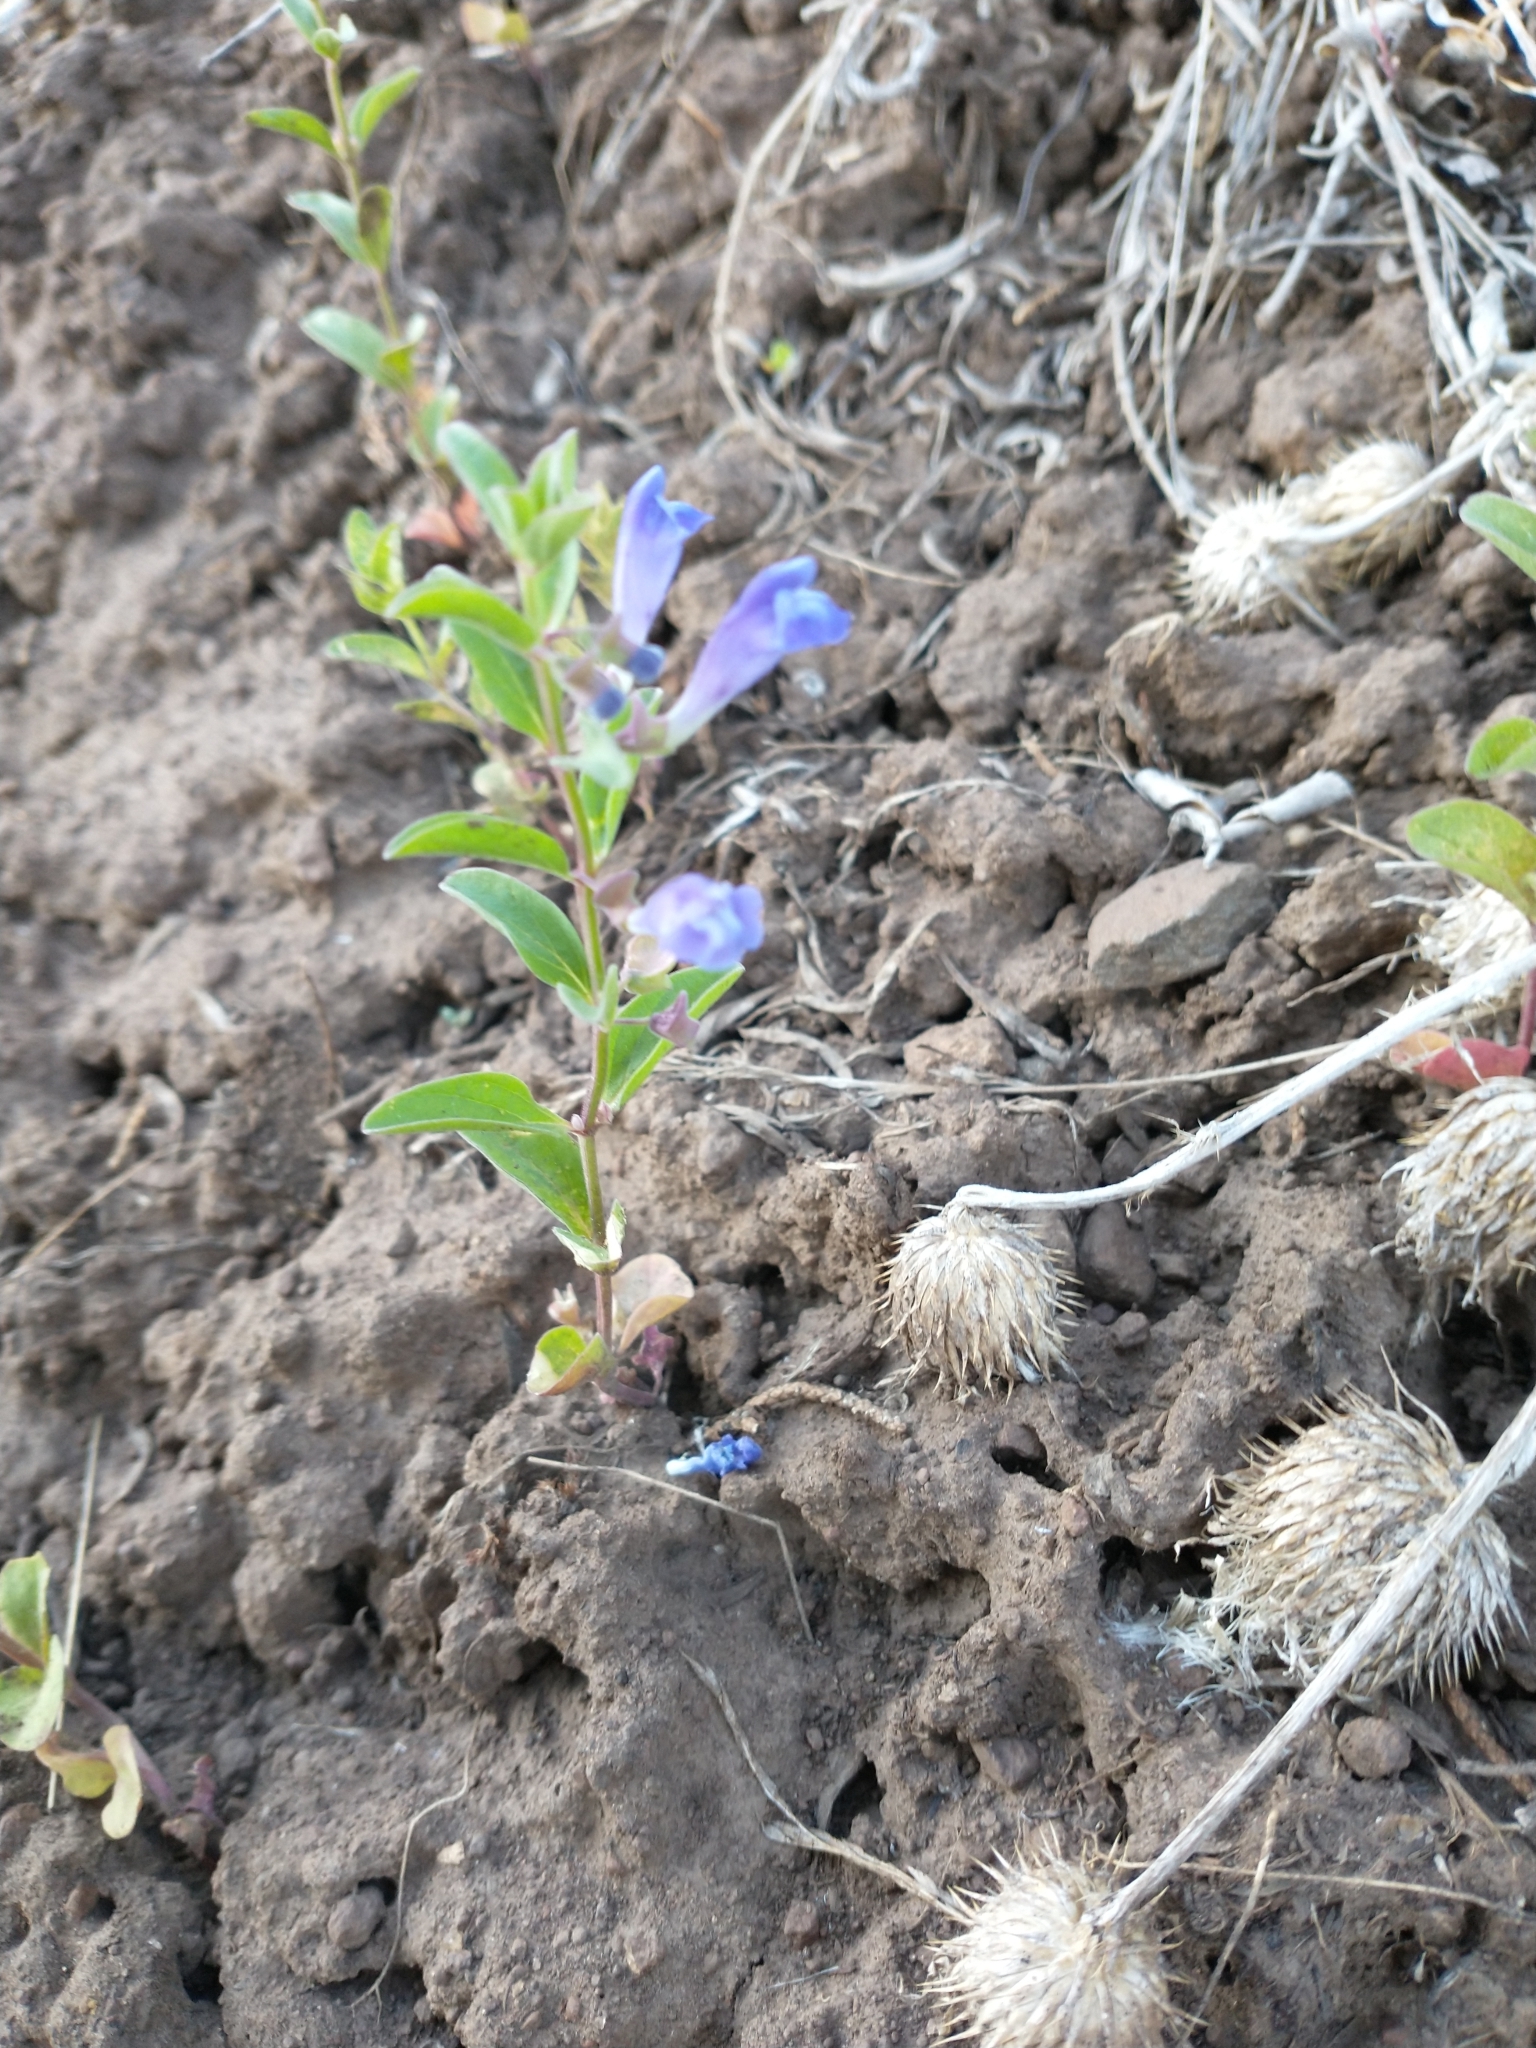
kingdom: Plantae
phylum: Tracheophyta
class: Magnoliopsida
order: Lamiales
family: Lamiaceae
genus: Scutellaria
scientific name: Scutellaria angustifolia
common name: Narrow-leaved skullcap
